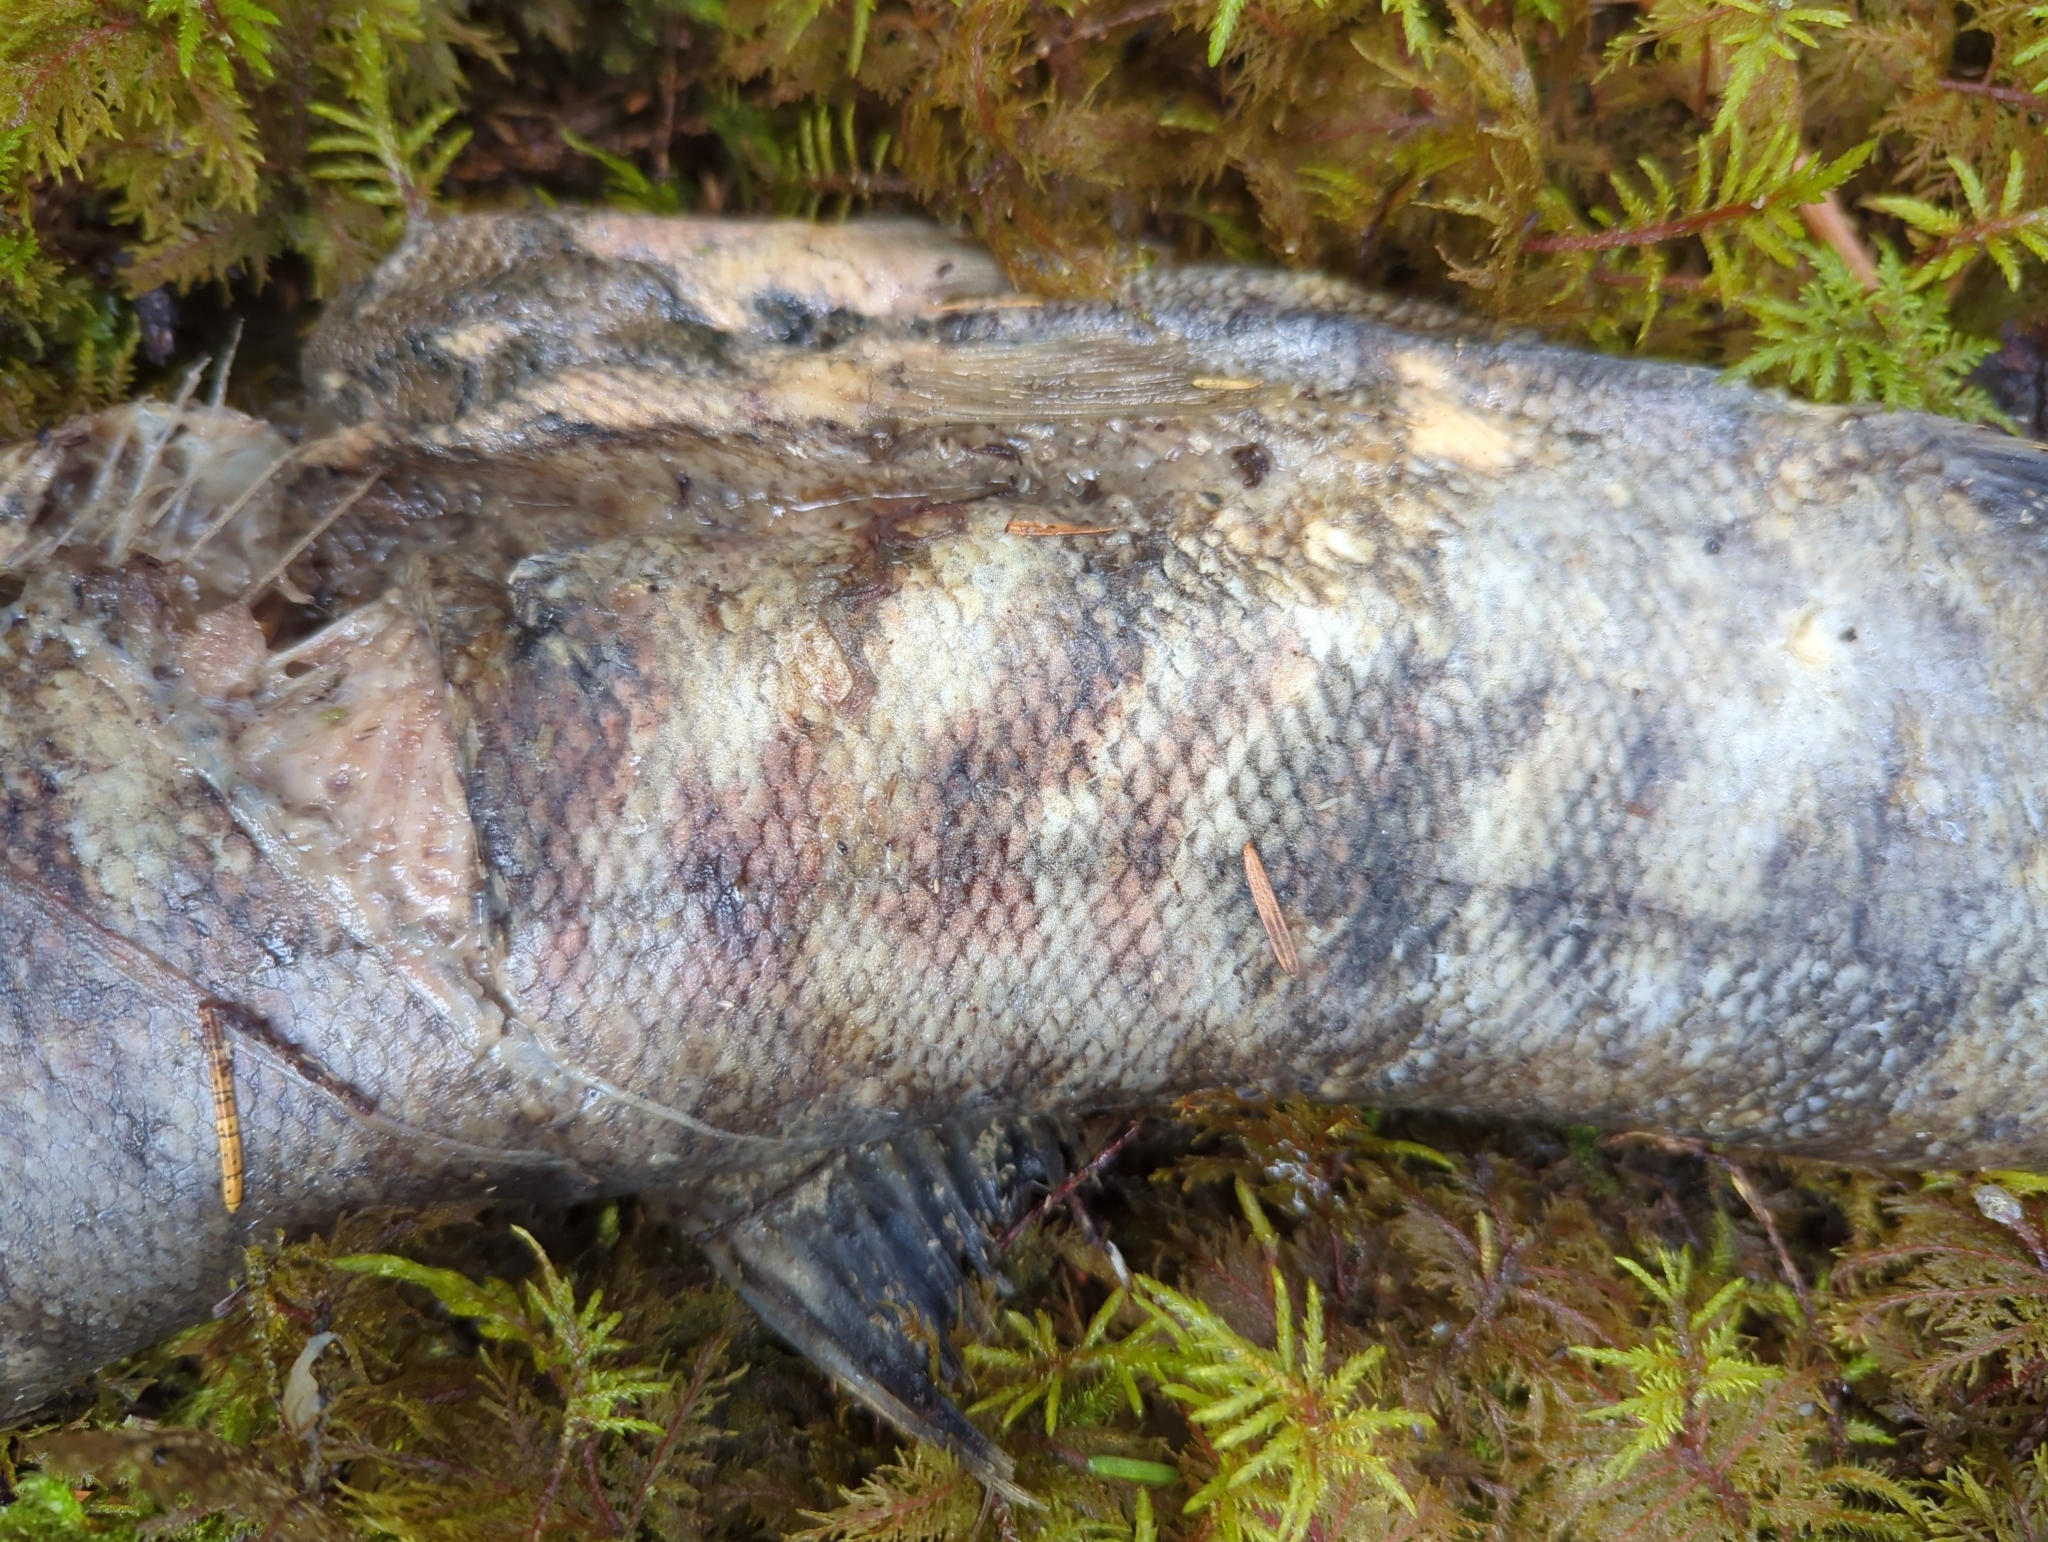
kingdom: Animalia
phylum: Chordata
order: Salmoniformes
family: Salmonidae
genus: Oncorhynchus
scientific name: Oncorhynchus keta
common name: Chum salmon
